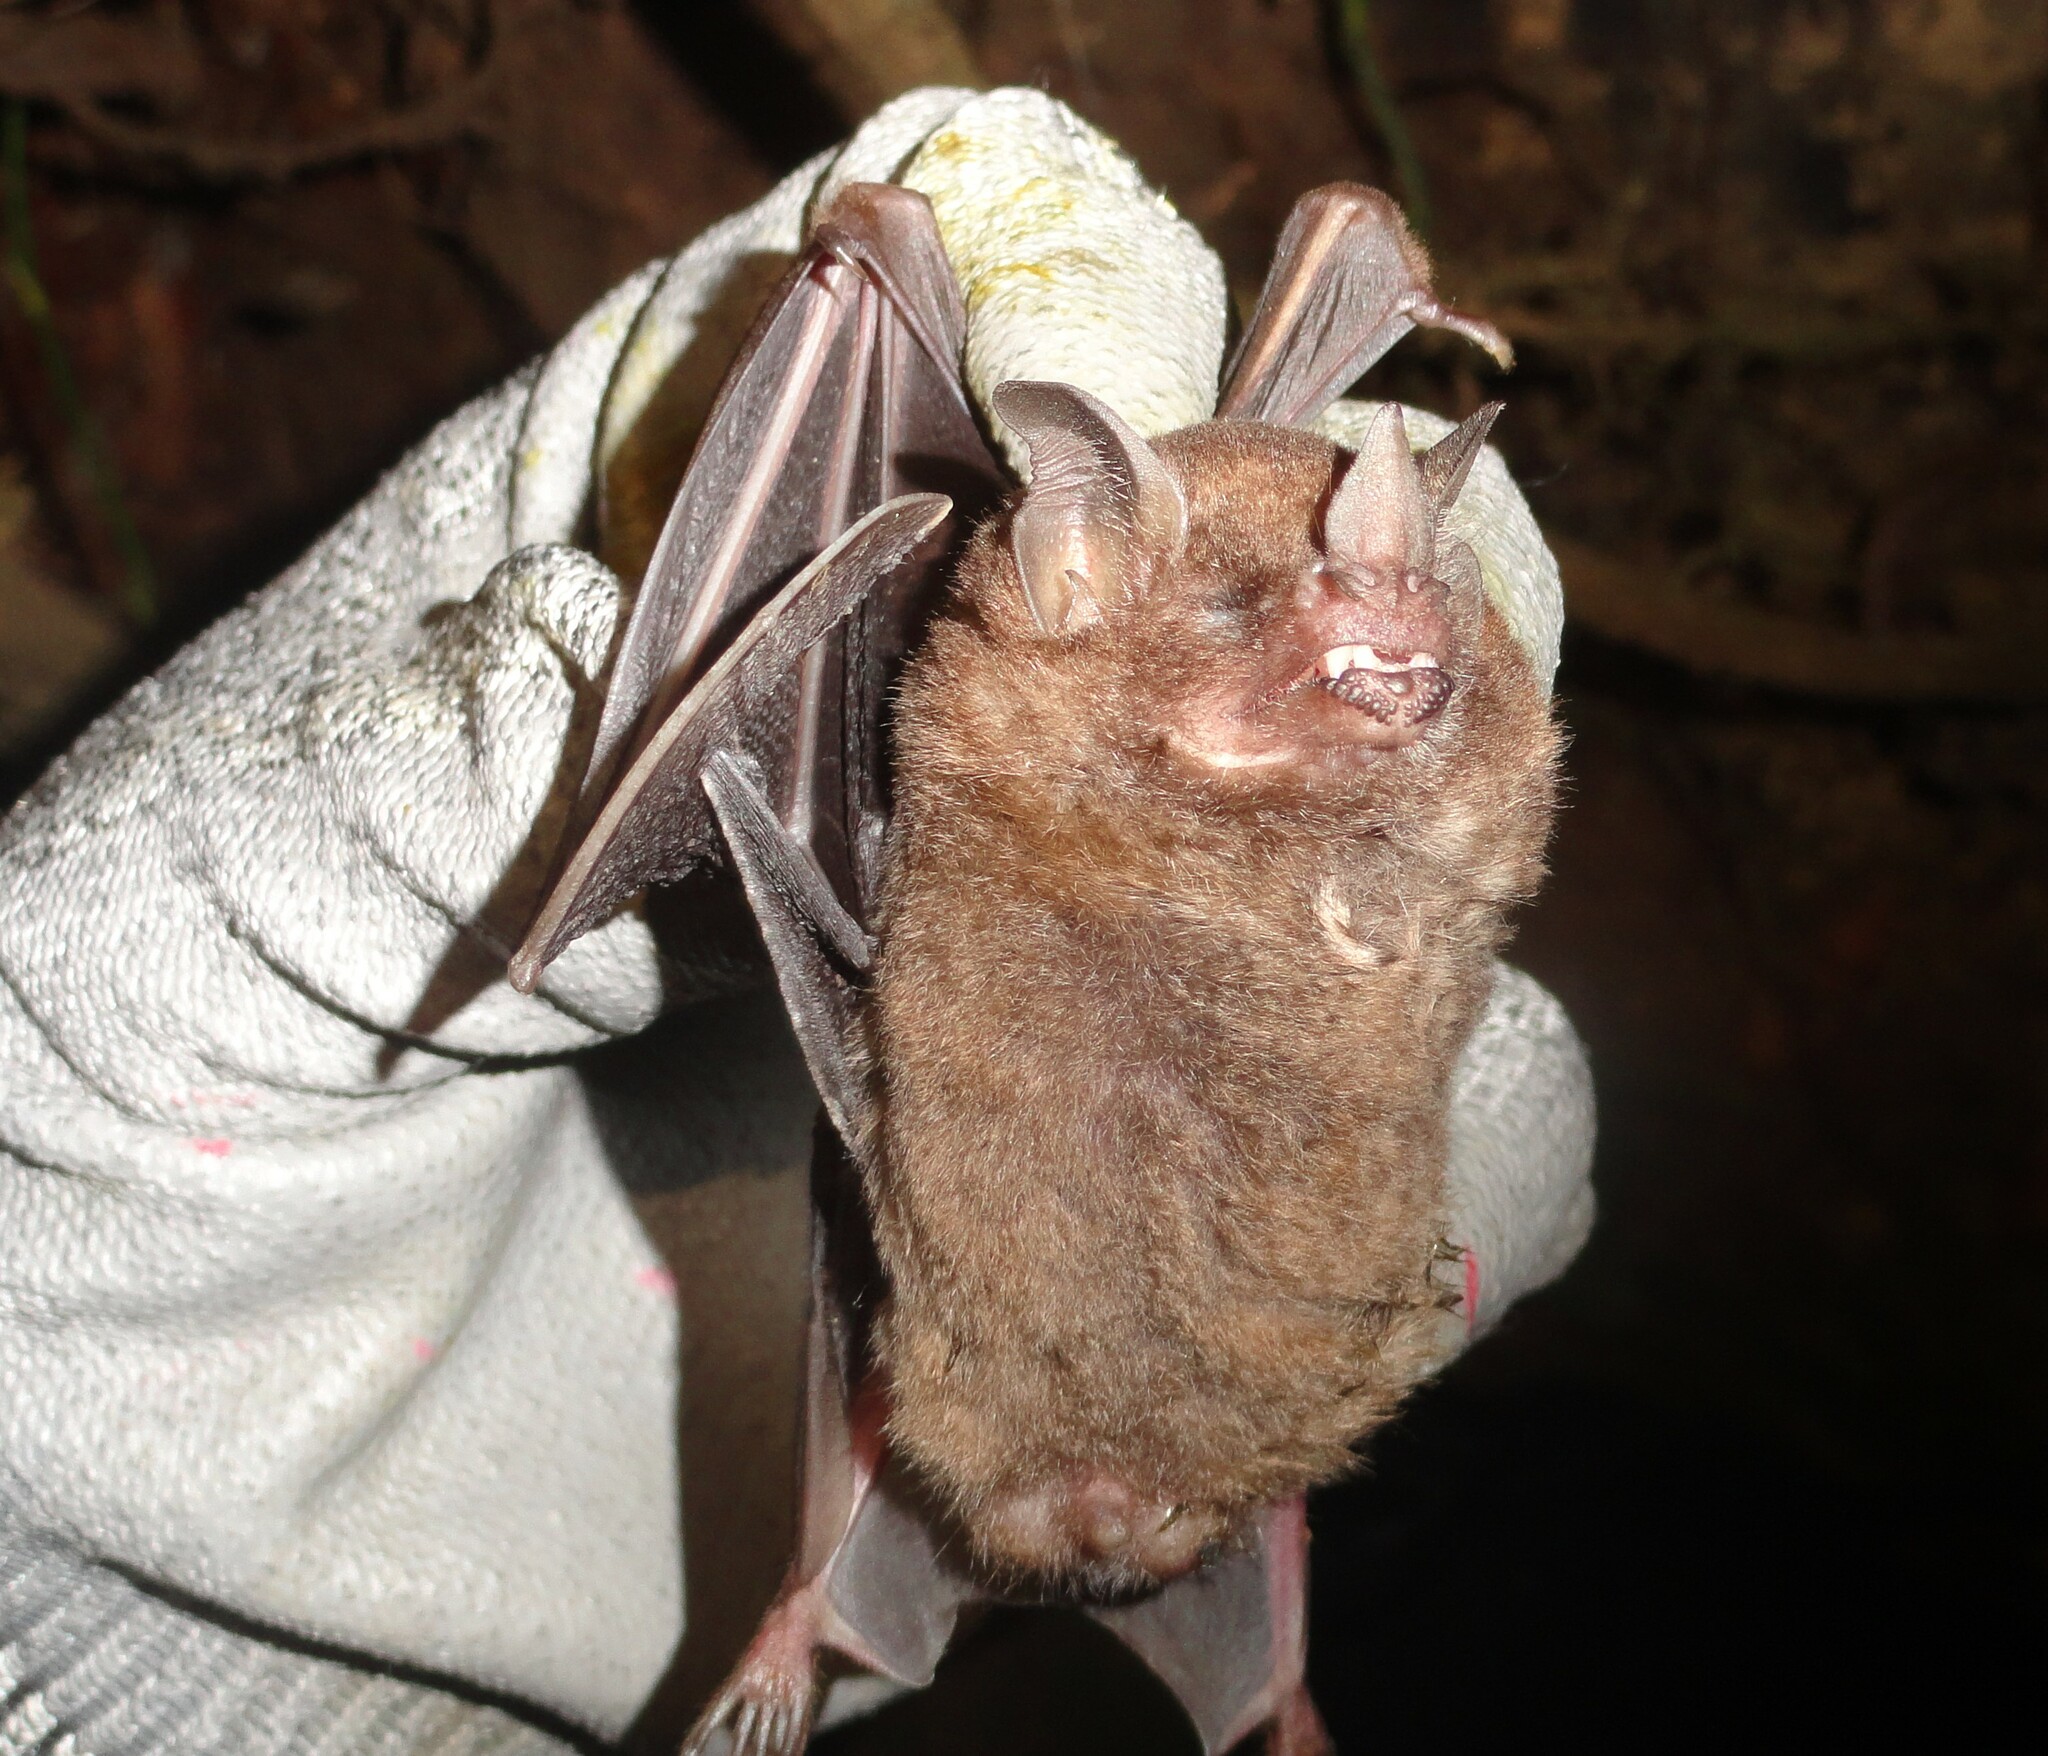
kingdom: Animalia
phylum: Chordata
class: Mammalia
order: Chiroptera
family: Phyllostomidae
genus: Carollia
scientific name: Carollia perspicillata
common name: Seba's short-tailed bat
